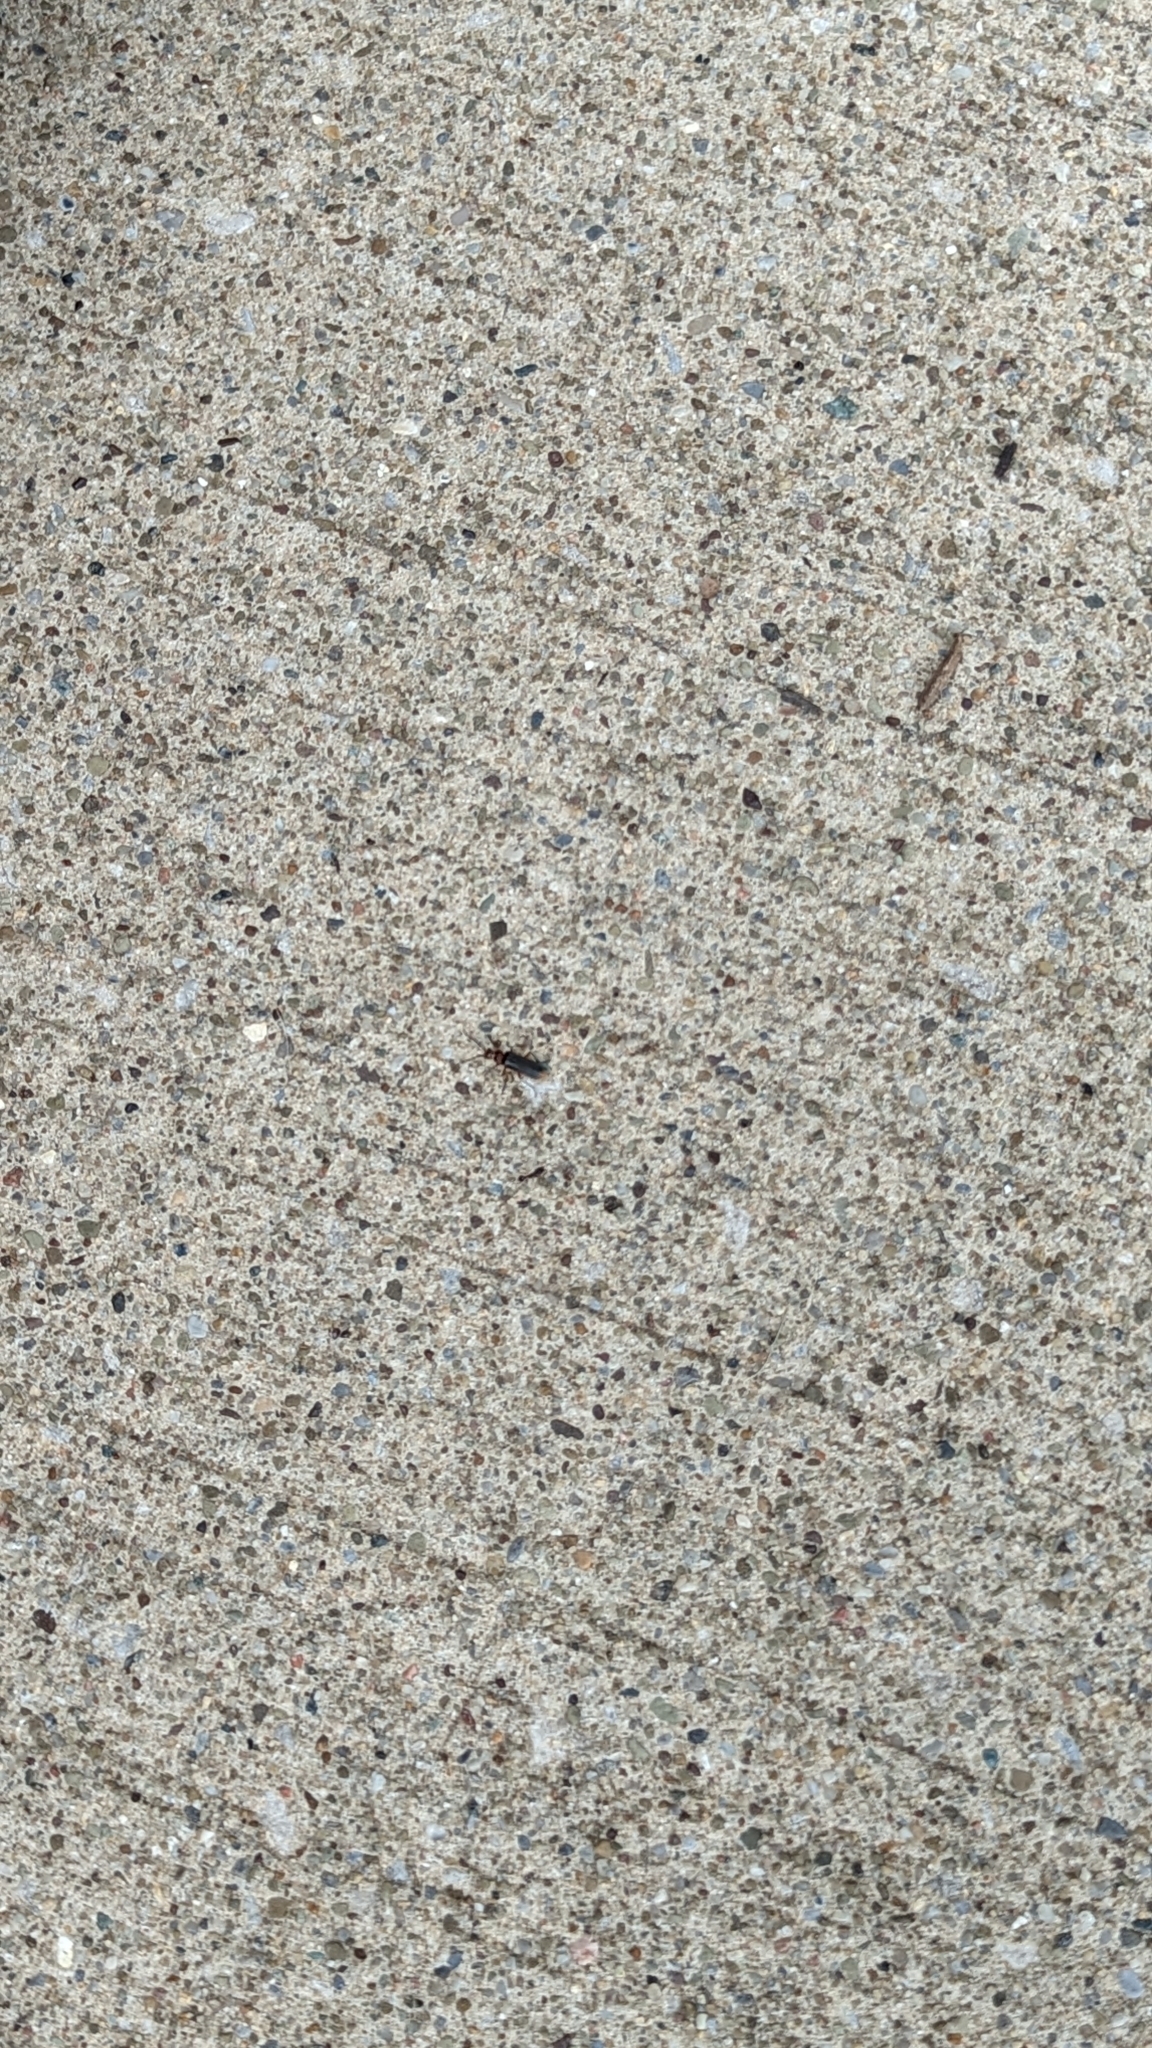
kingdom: Animalia
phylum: Arthropoda
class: Insecta
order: Coleoptera
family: Cantharidae
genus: Atalantycha
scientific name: Atalantycha bilineata
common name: Two-lined leatherwing
